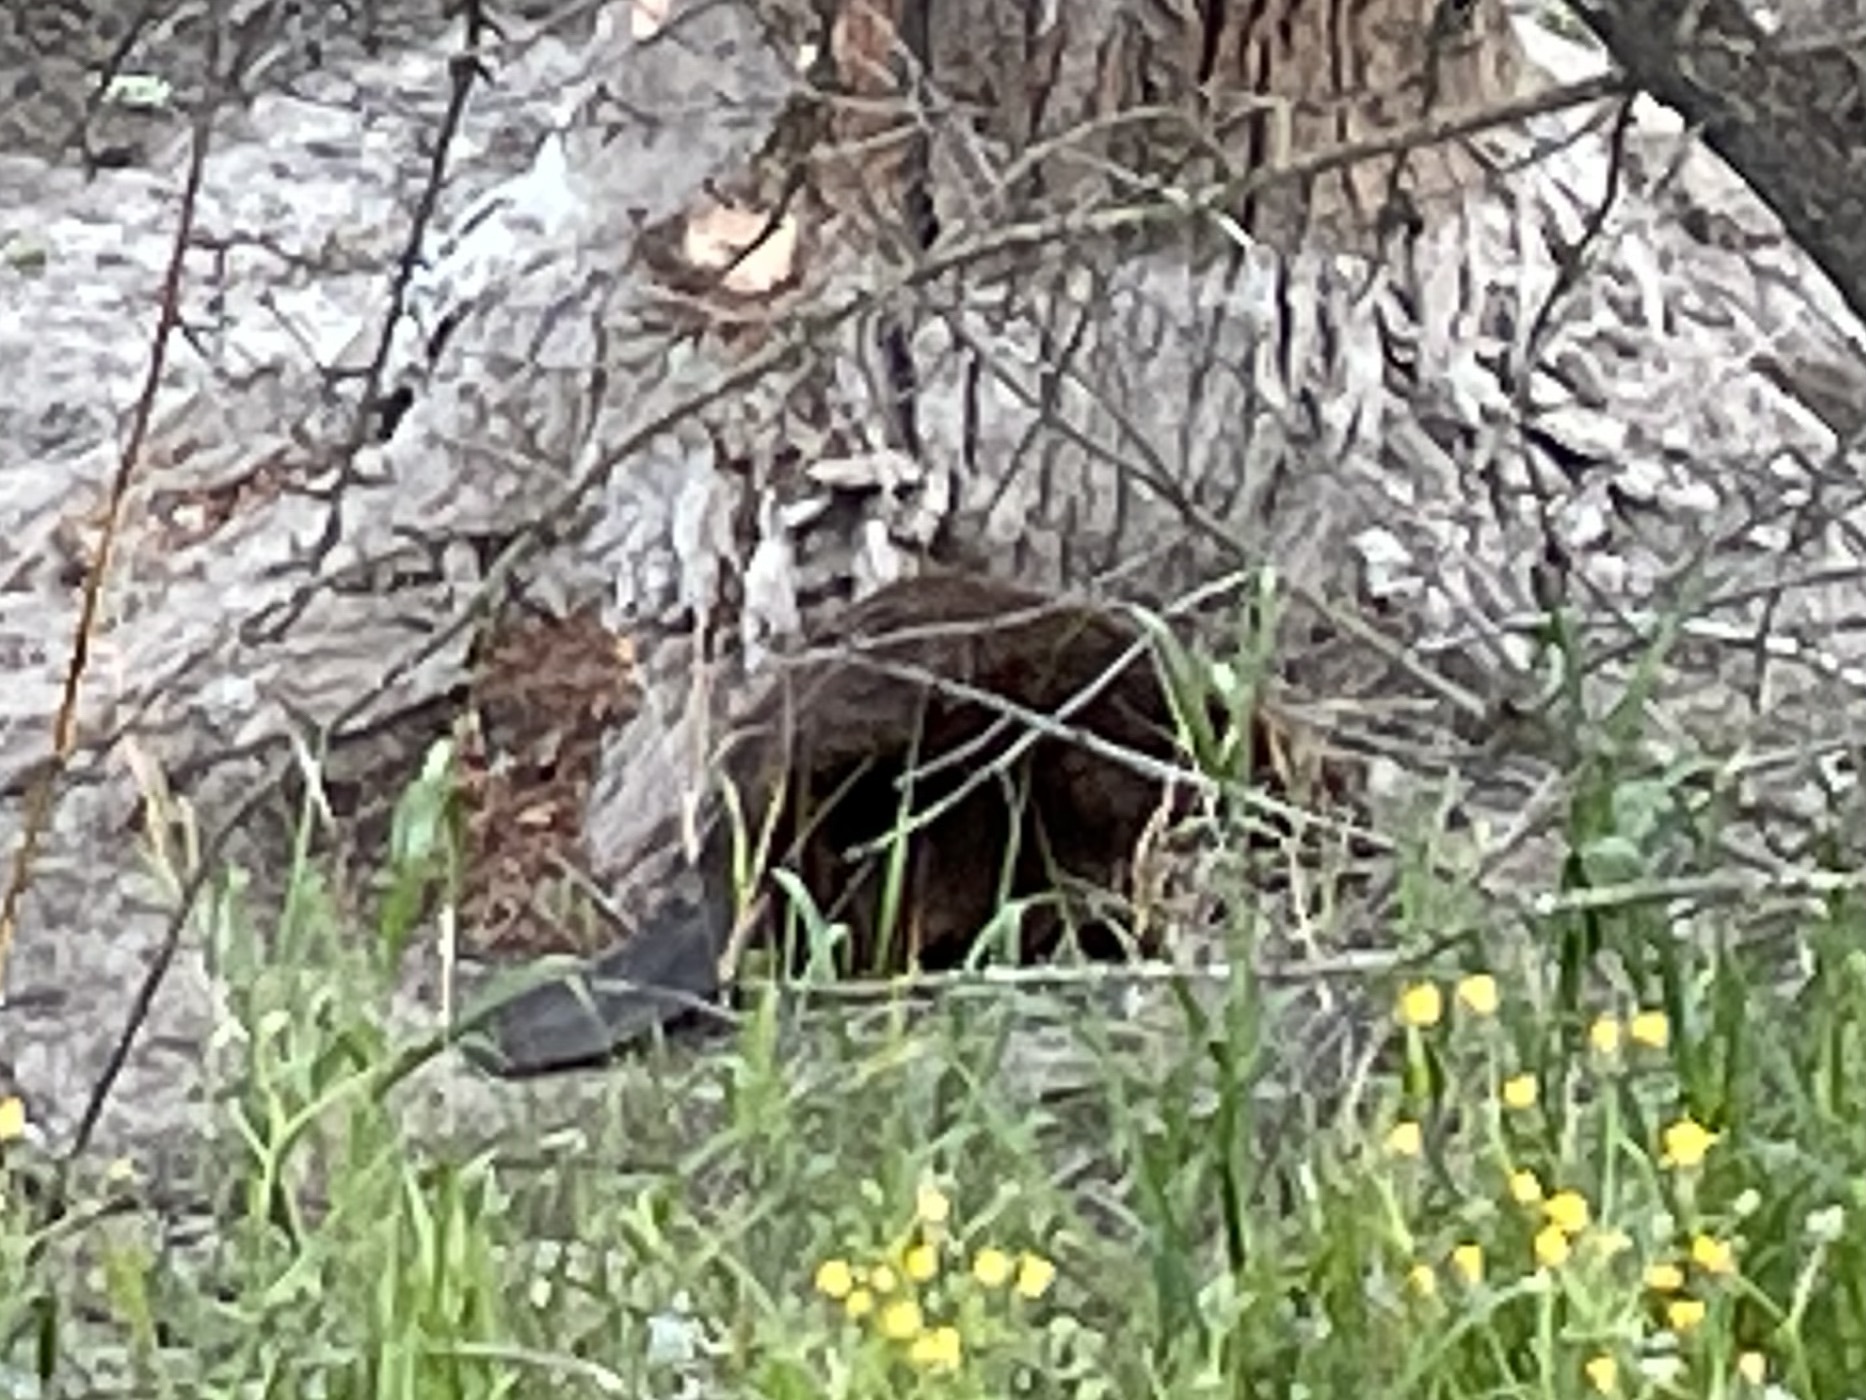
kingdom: Animalia
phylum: Chordata
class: Mammalia
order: Rodentia
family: Castoridae
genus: Castor
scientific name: Castor canadensis
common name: American beaver
